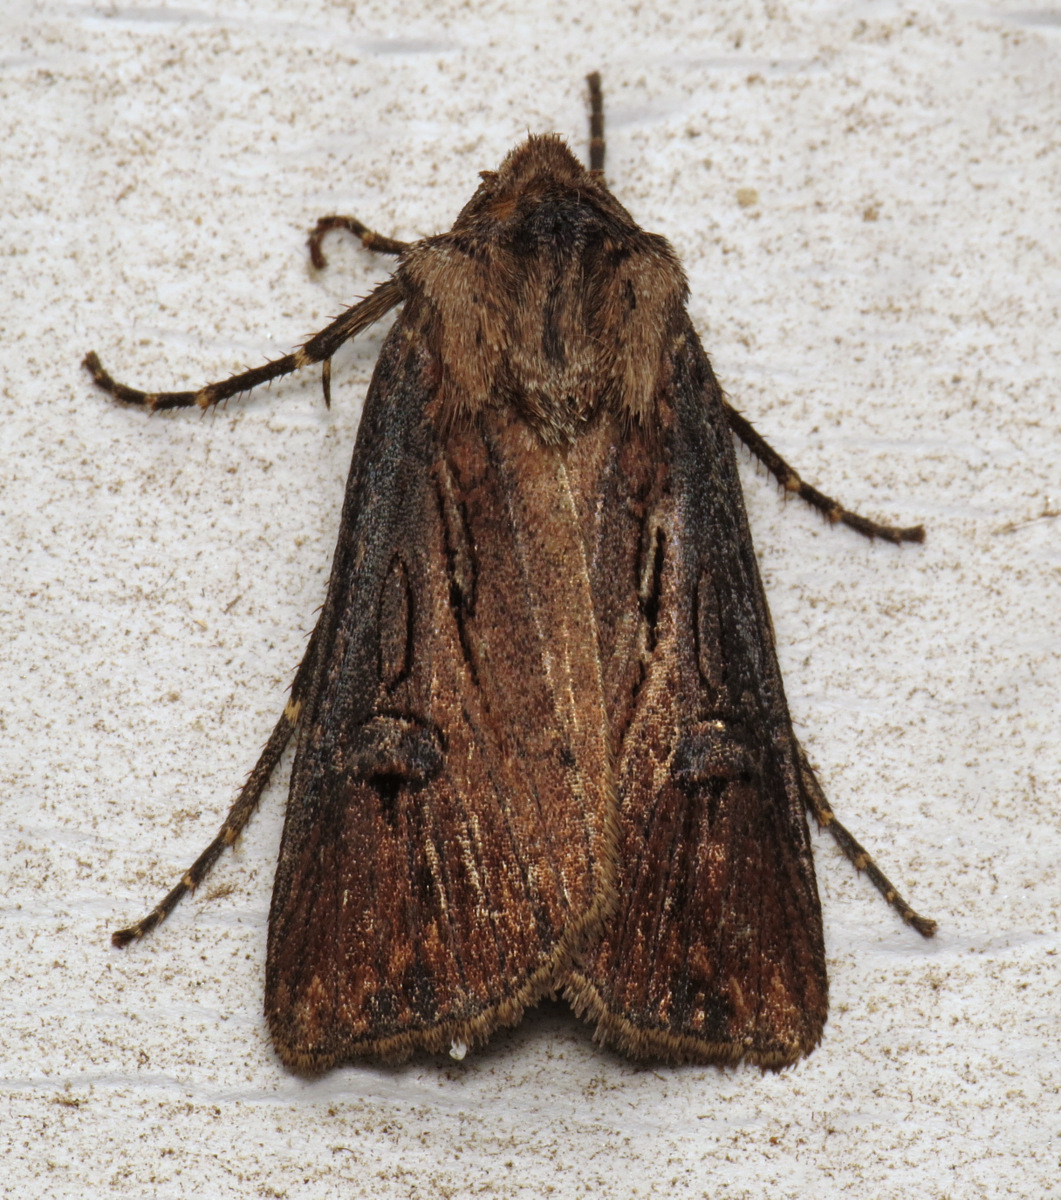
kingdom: Animalia
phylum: Arthropoda
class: Insecta
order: Lepidoptera
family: Noctuidae
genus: Agrotis
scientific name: Agrotis venerabilis
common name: Venerable dart
